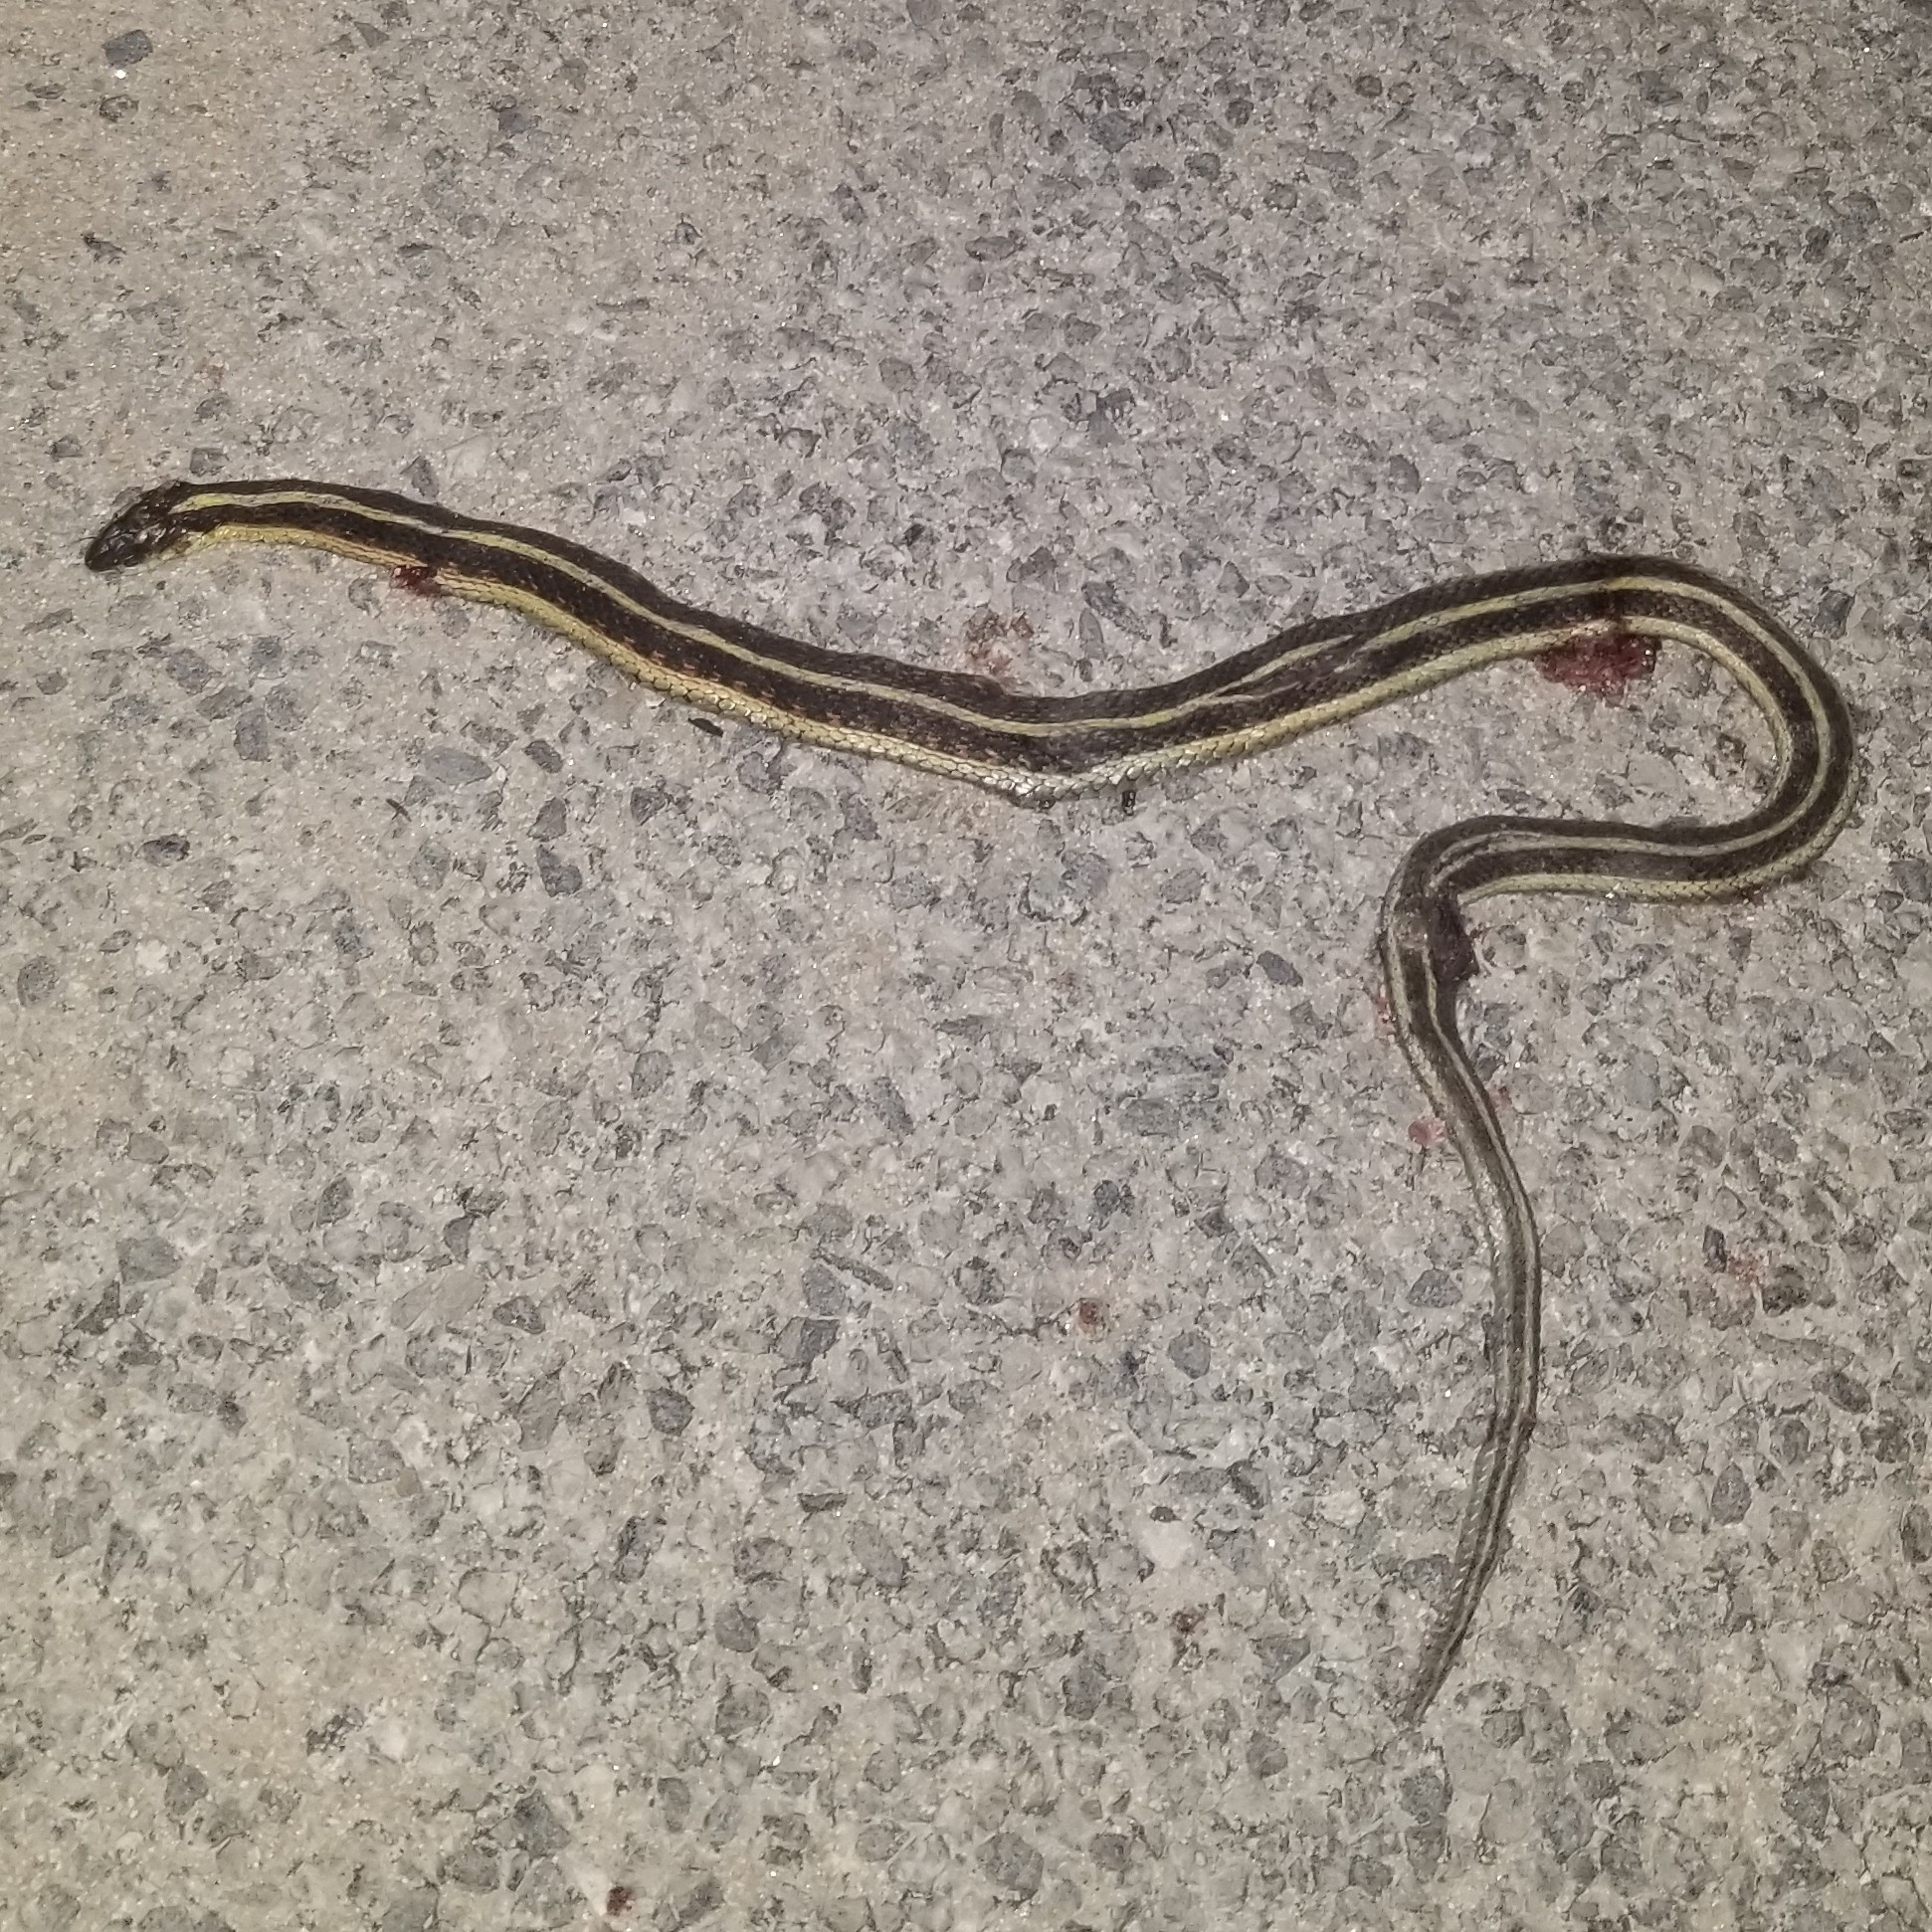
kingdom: Animalia
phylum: Chordata
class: Squamata
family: Colubridae
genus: Thamnophis
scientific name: Thamnophis sirtalis
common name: Common garter snake
